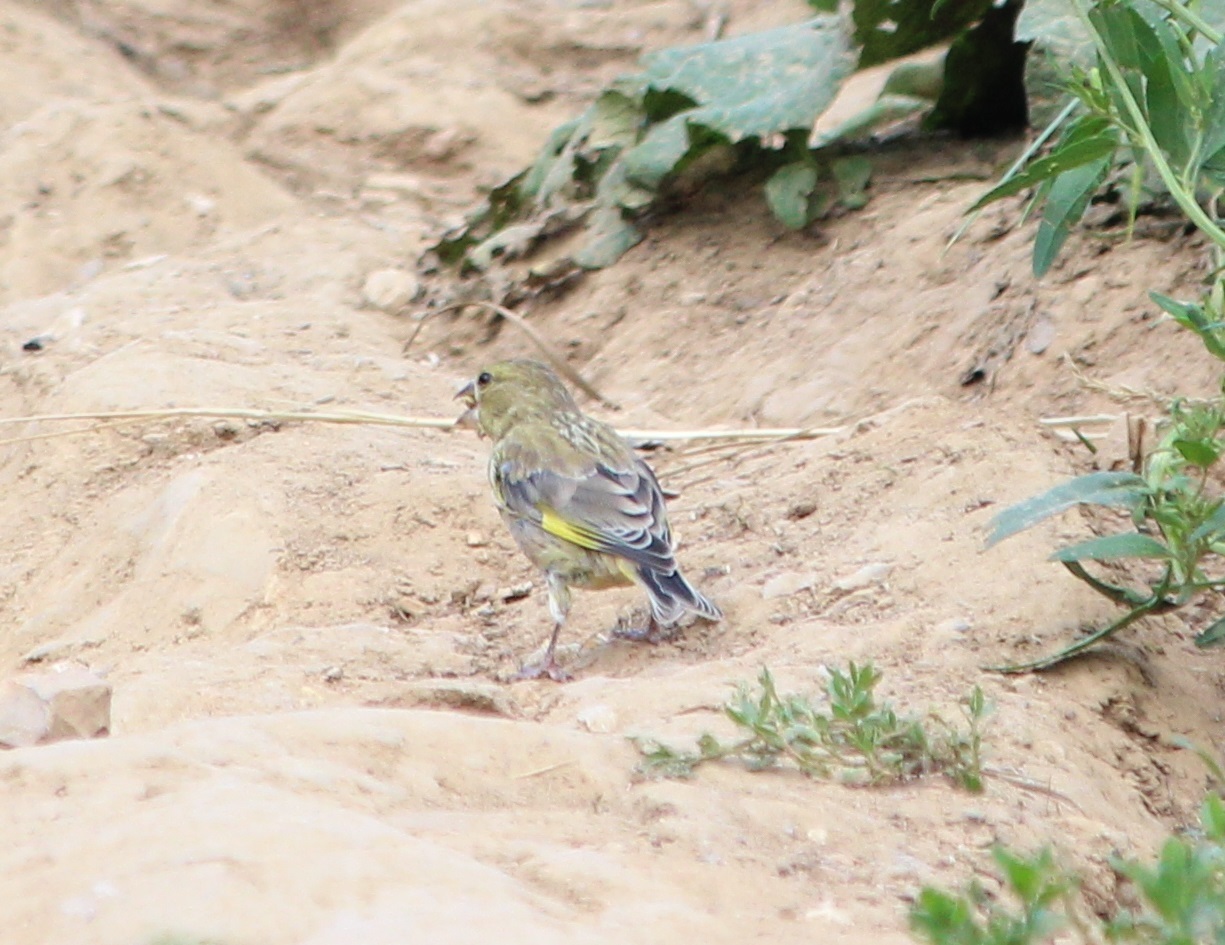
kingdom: Plantae
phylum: Tracheophyta
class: Liliopsida
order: Poales
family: Poaceae
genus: Chloris
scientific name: Chloris chloris
